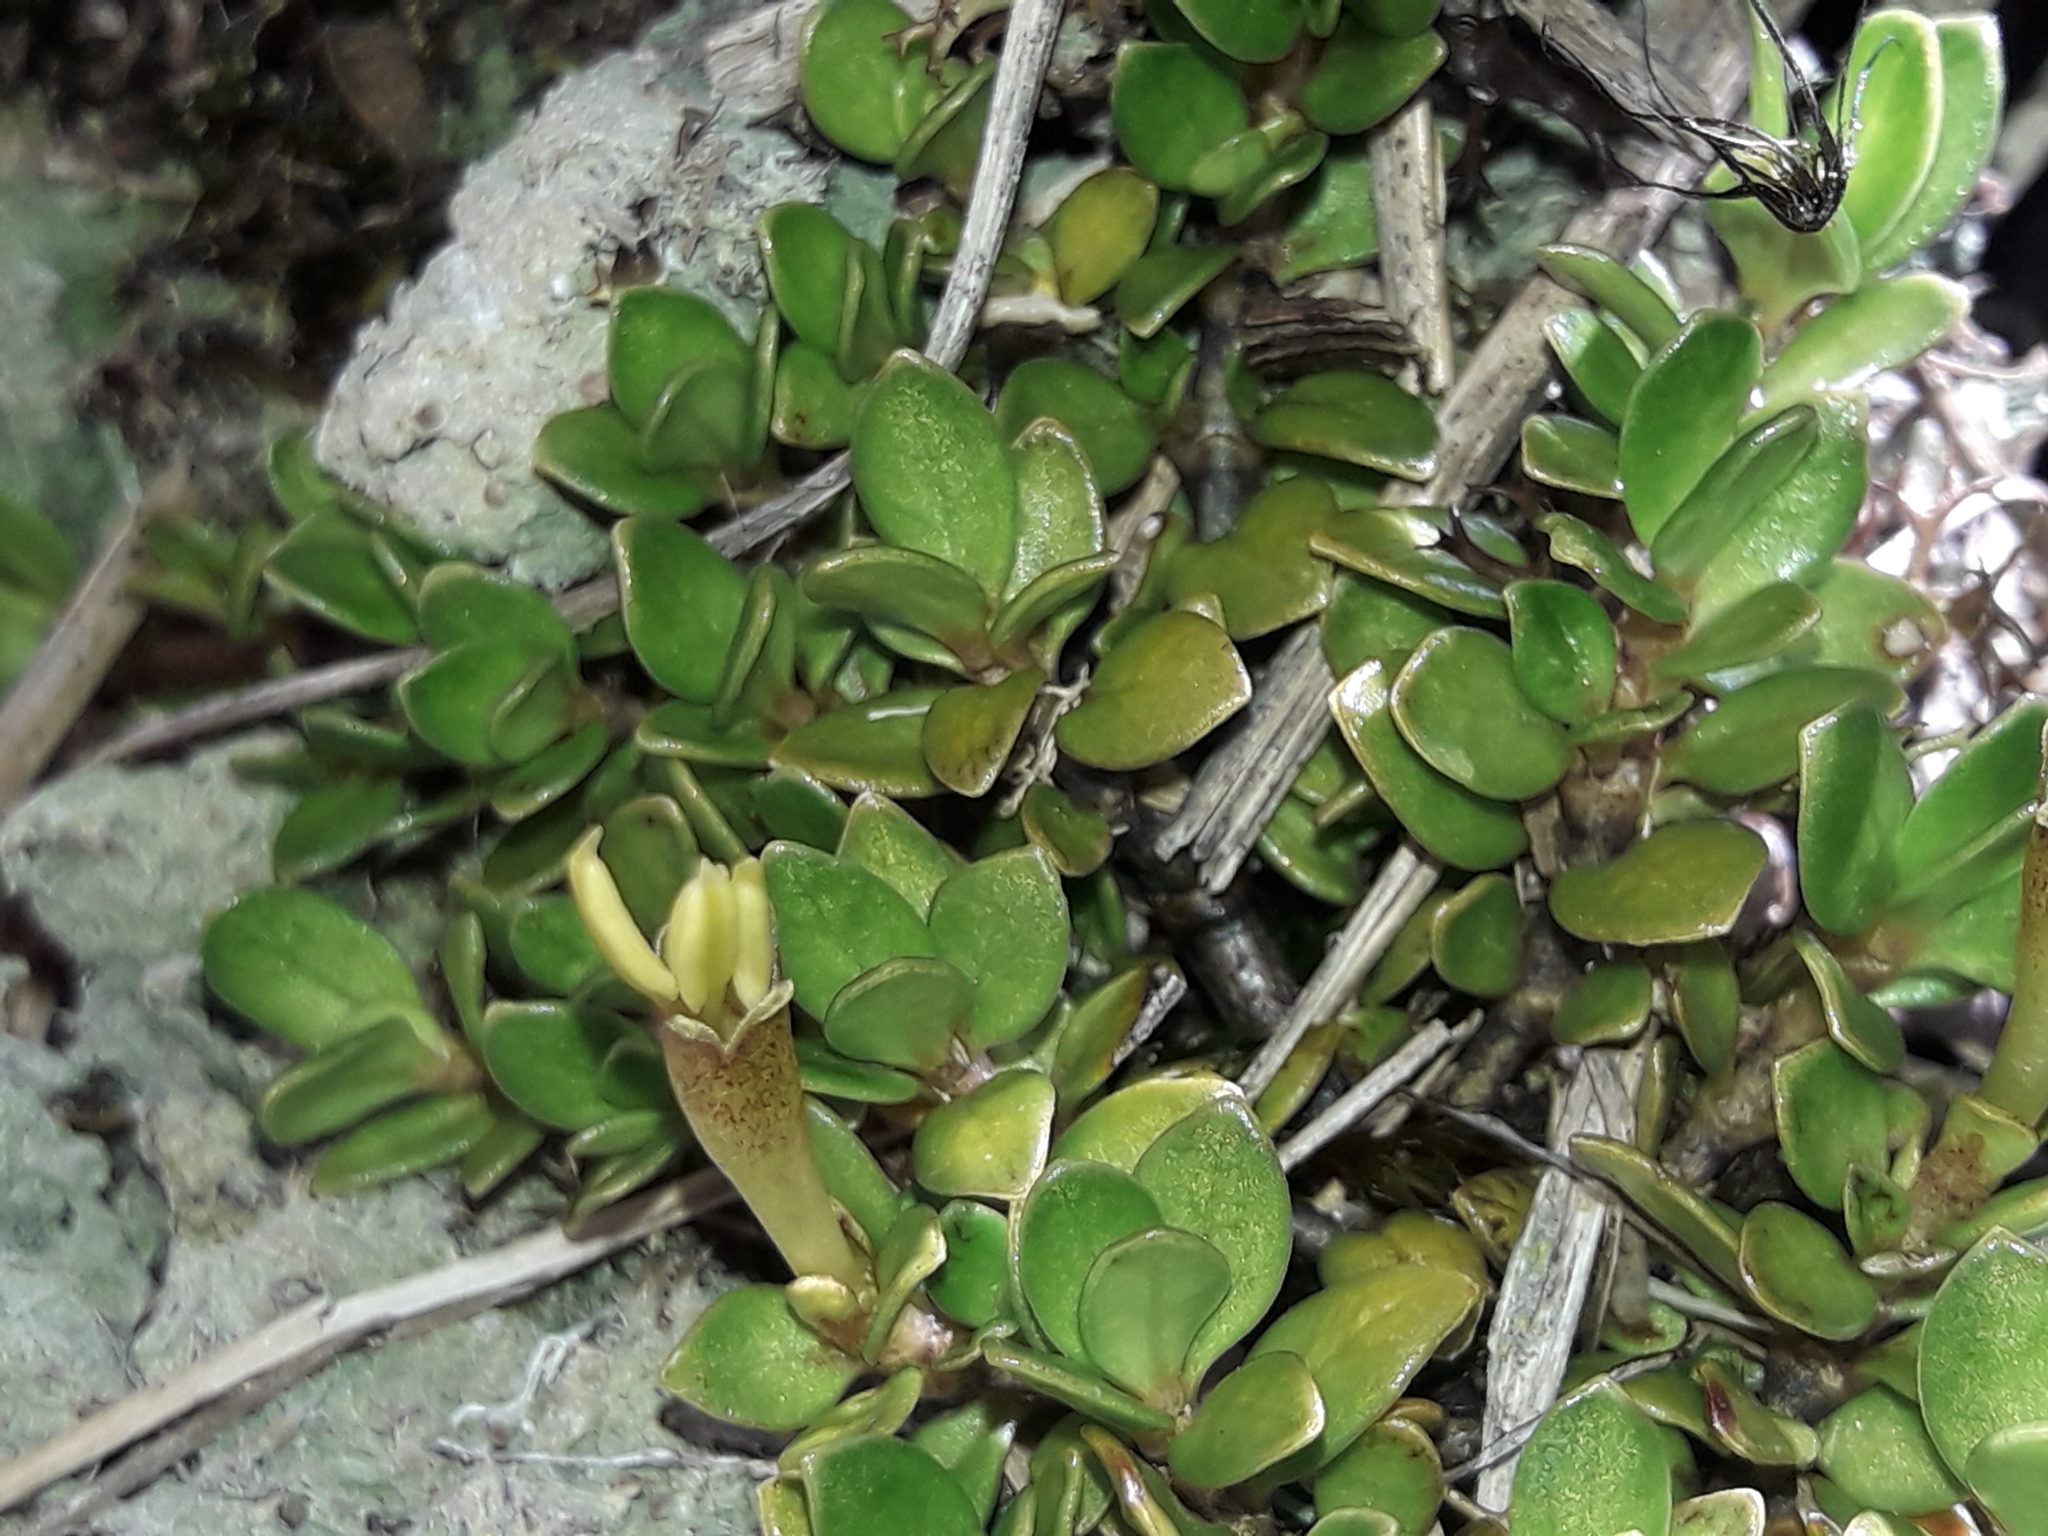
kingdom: Plantae
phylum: Tracheophyta
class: Magnoliopsida
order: Gentianales
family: Rubiaceae
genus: Coprosma
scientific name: Coprosma perpusilla
